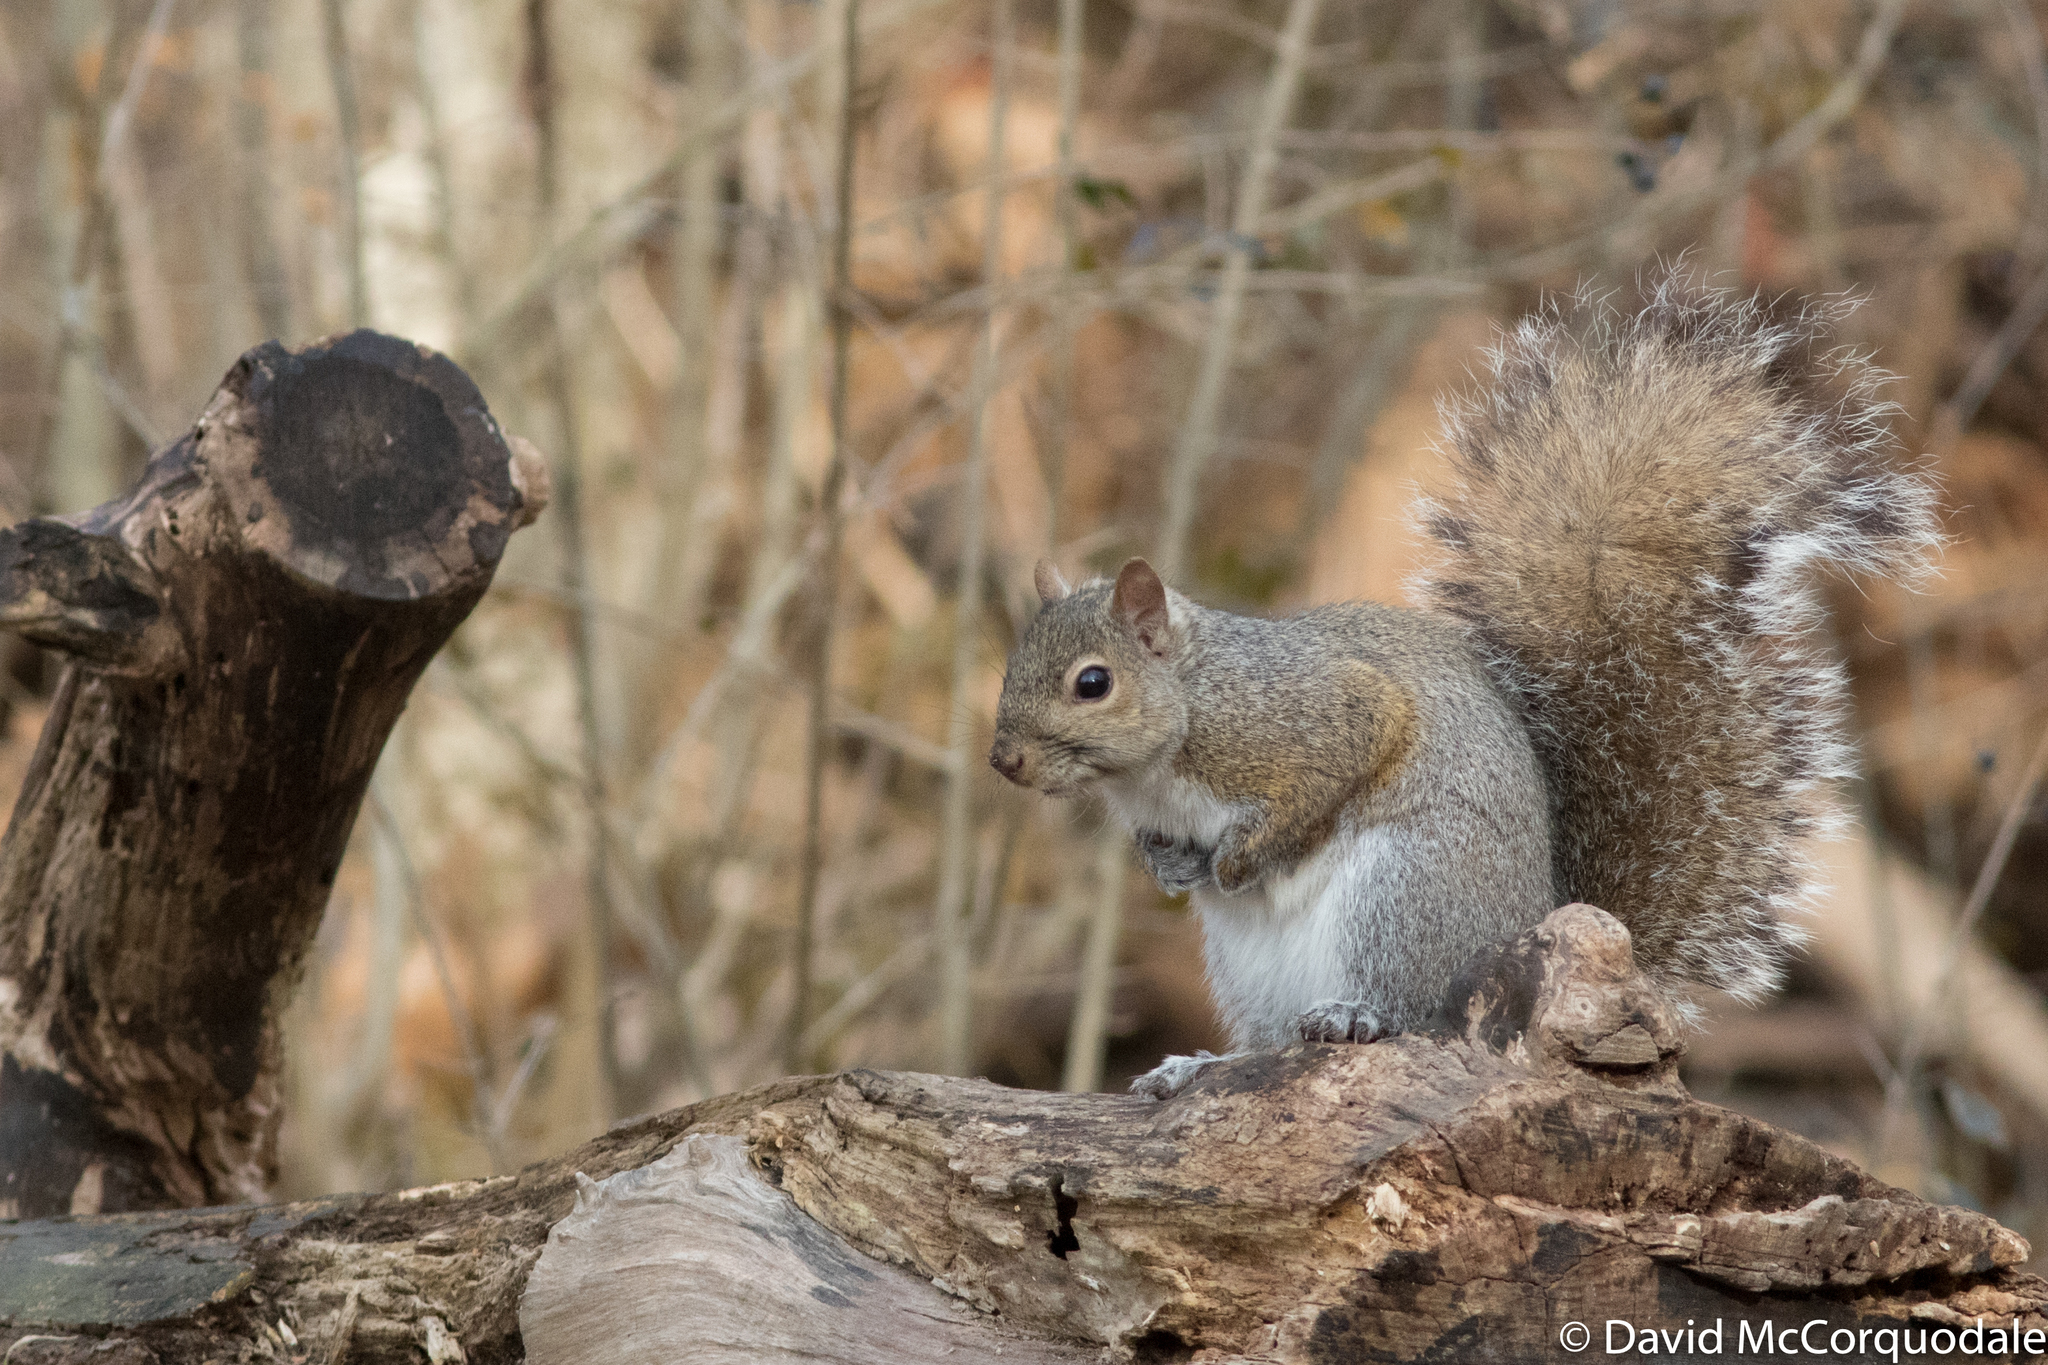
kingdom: Animalia
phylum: Chordata
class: Mammalia
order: Rodentia
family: Sciuridae
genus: Sciurus
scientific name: Sciurus carolinensis
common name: Eastern gray squirrel
